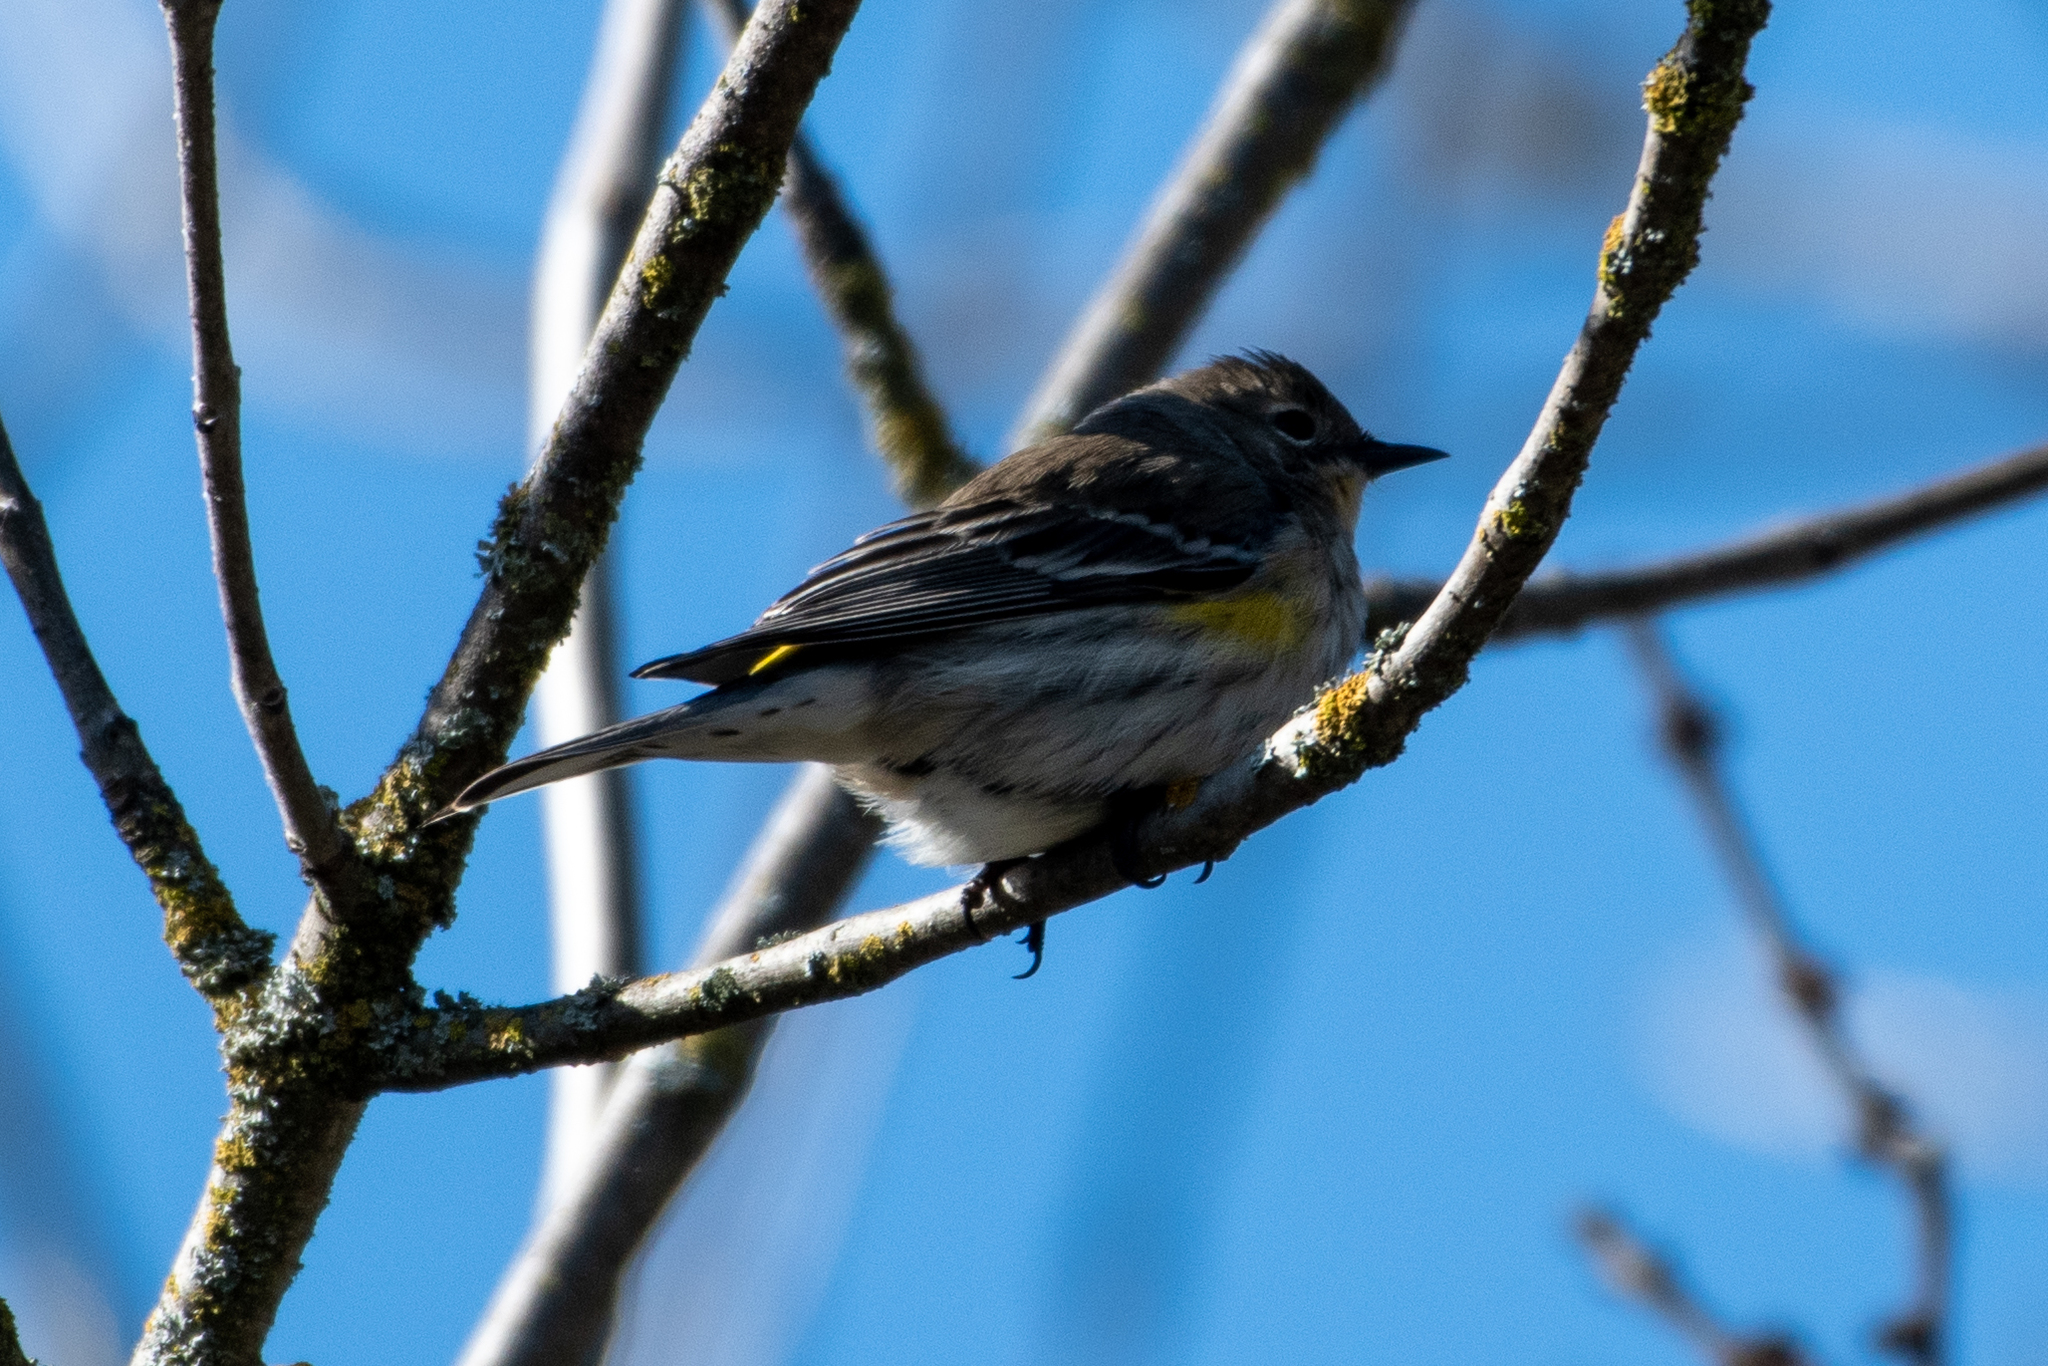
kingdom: Animalia
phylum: Chordata
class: Aves
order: Passeriformes
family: Parulidae
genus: Setophaga
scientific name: Setophaga coronata
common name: Myrtle warbler
